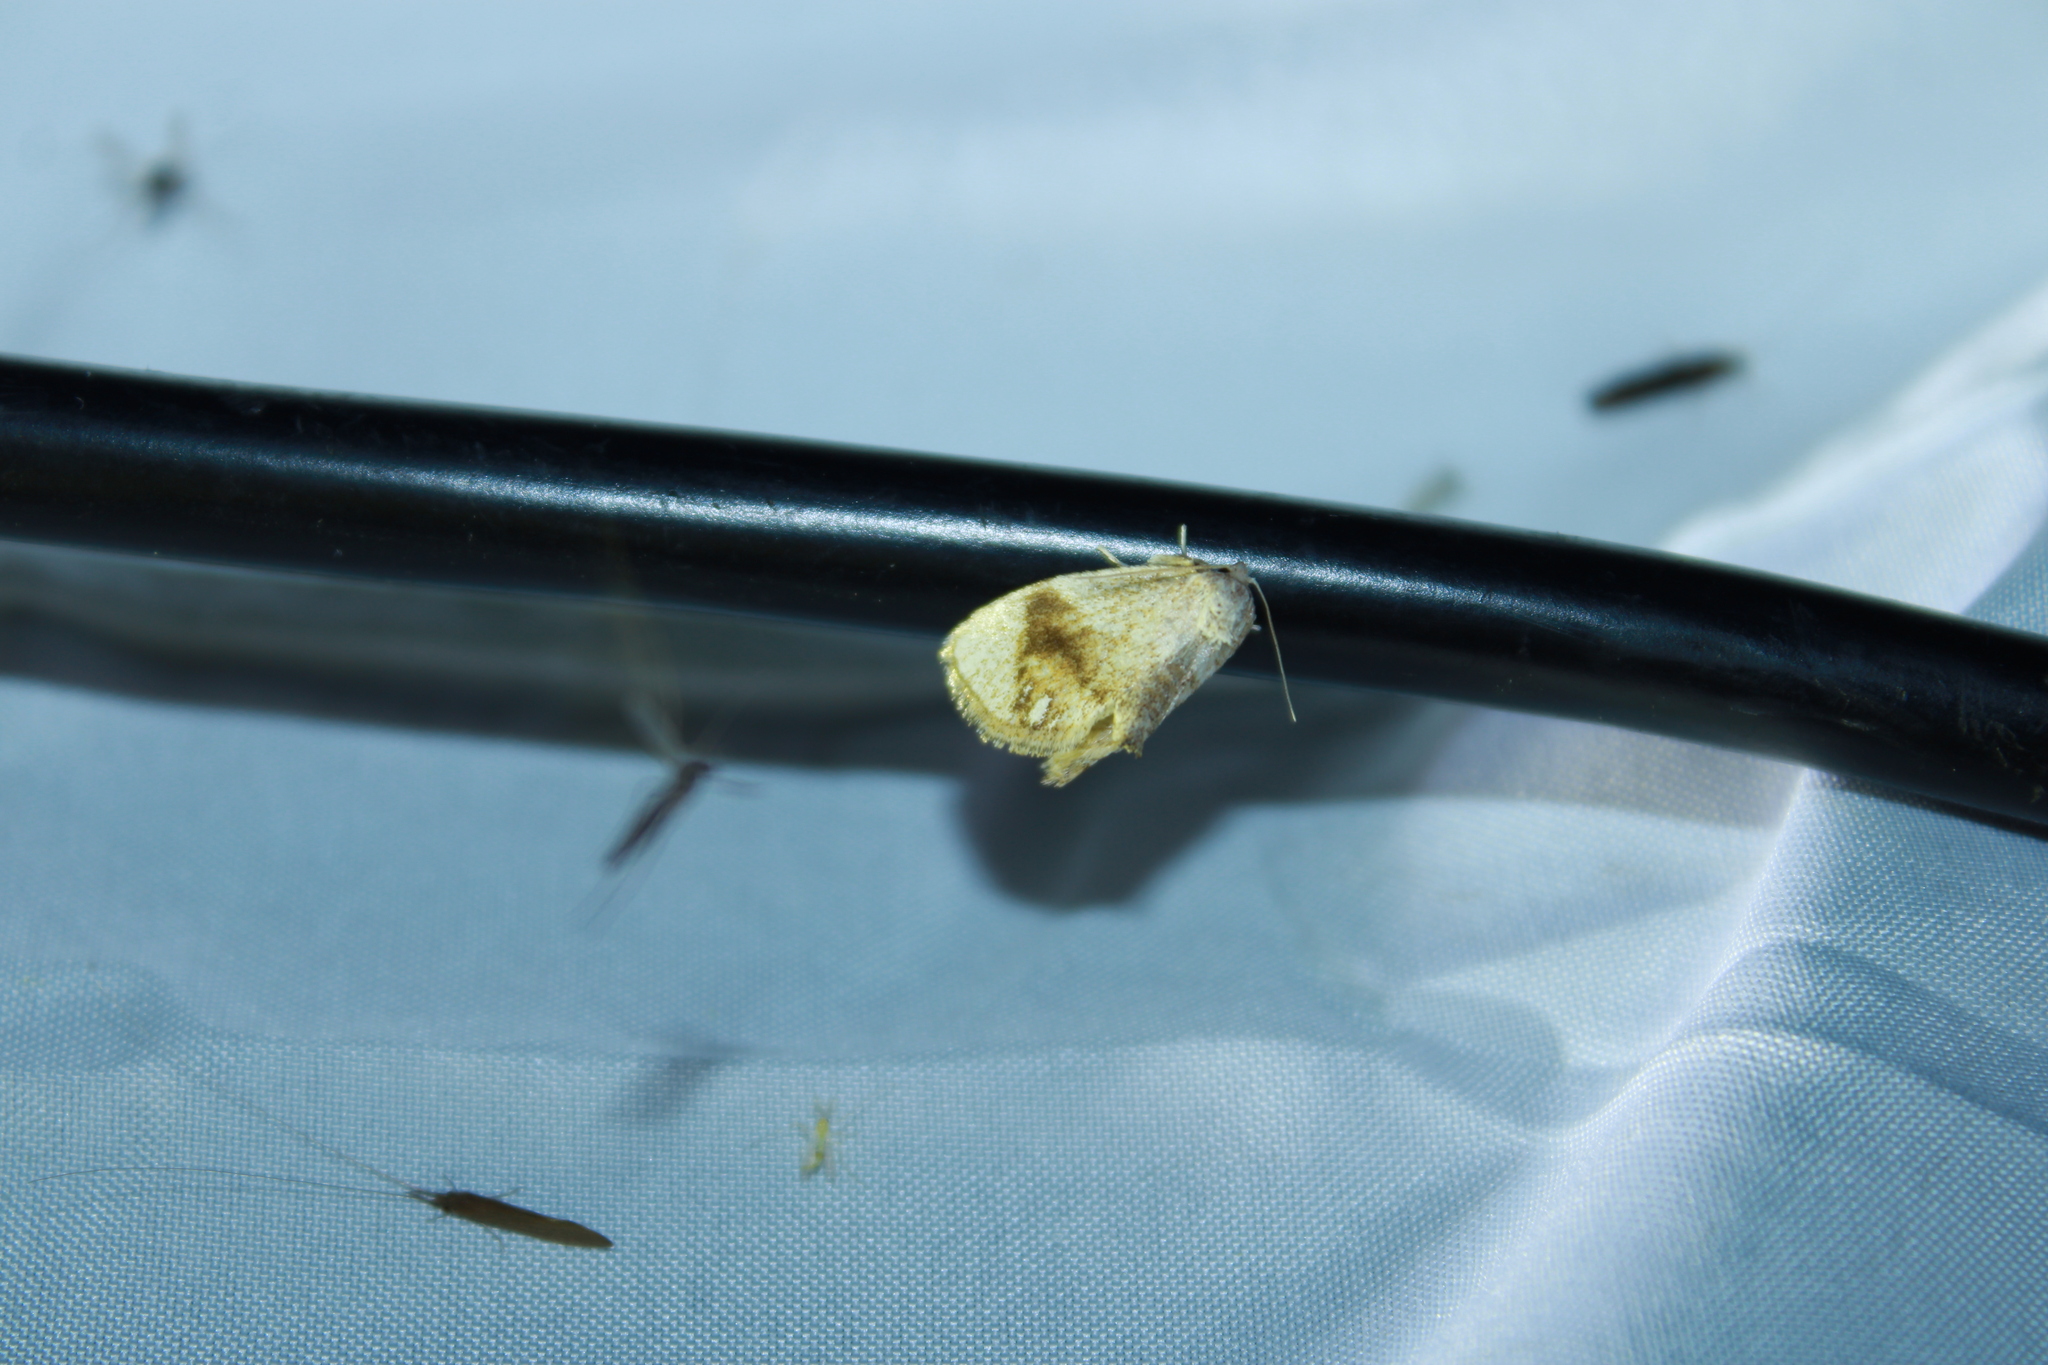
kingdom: Animalia
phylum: Arthropoda
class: Insecta
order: Lepidoptera
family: Limacodidae
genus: Packardia
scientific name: Packardia geminata
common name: Jeweled tailed slug moth
